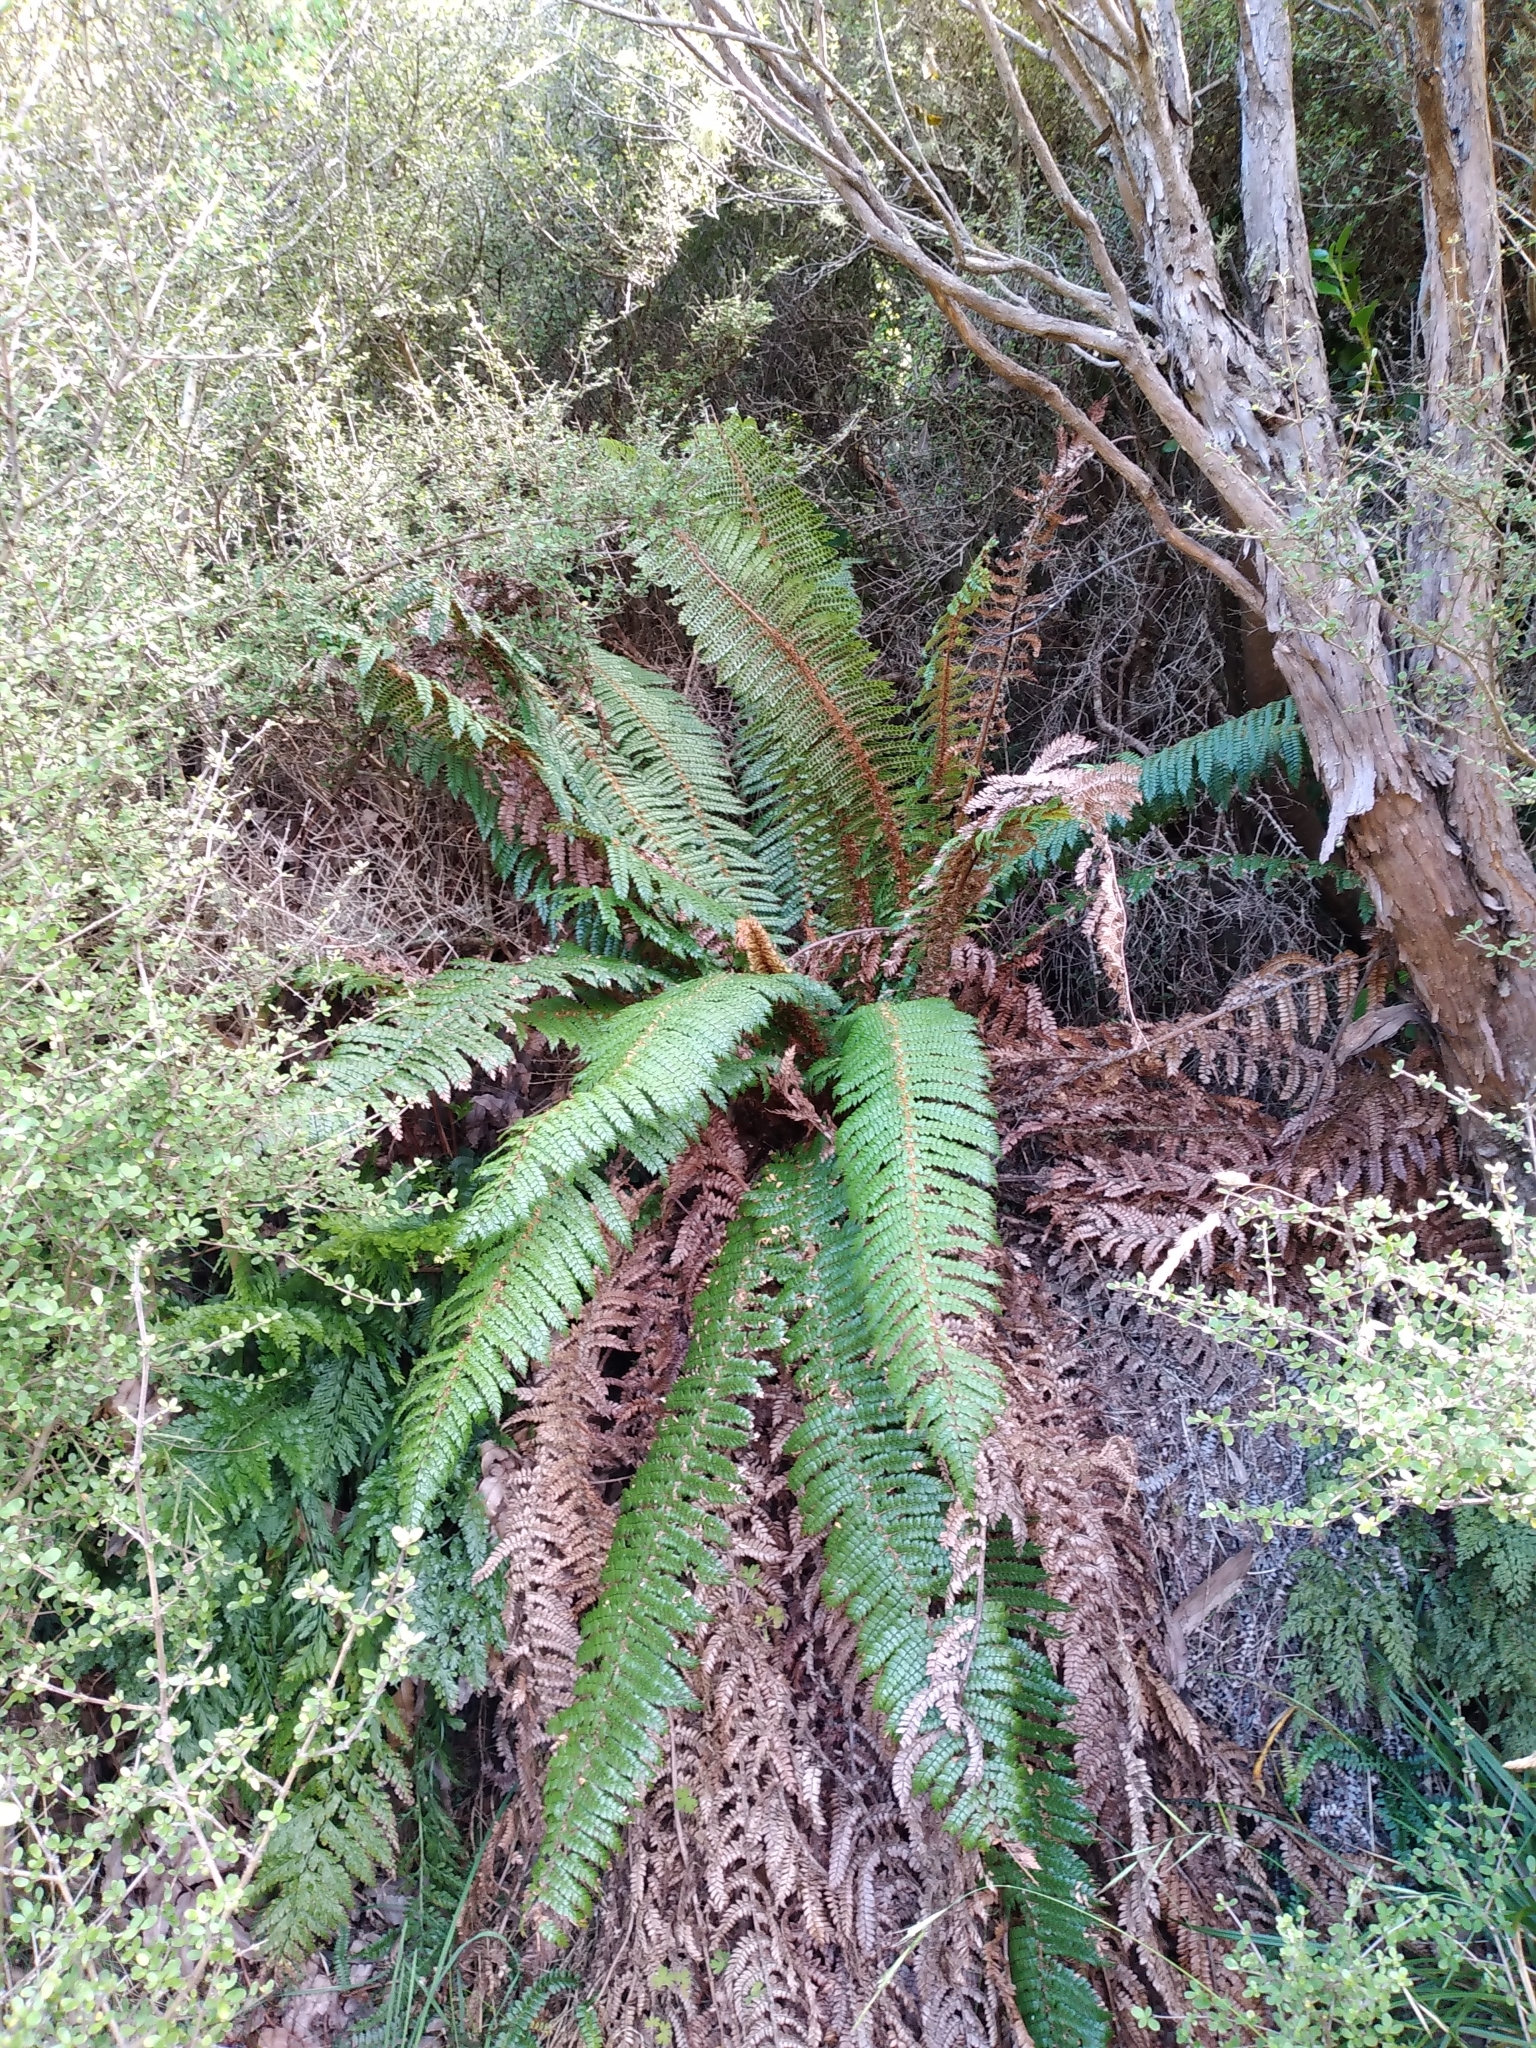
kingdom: Plantae
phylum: Tracheophyta
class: Polypodiopsida
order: Polypodiales
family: Dryopteridaceae
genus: Polystichum
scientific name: Polystichum vestitum
